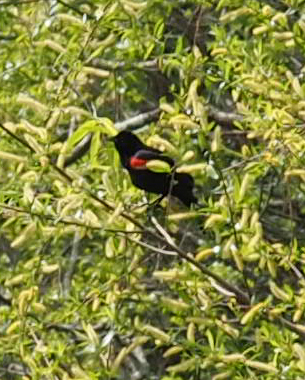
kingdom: Animalia
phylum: Chordata
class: Aves
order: Passeriformes
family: Icteridae
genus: Agelaius
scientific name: Agelaius phoeniceus
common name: Red-winged blackbird
